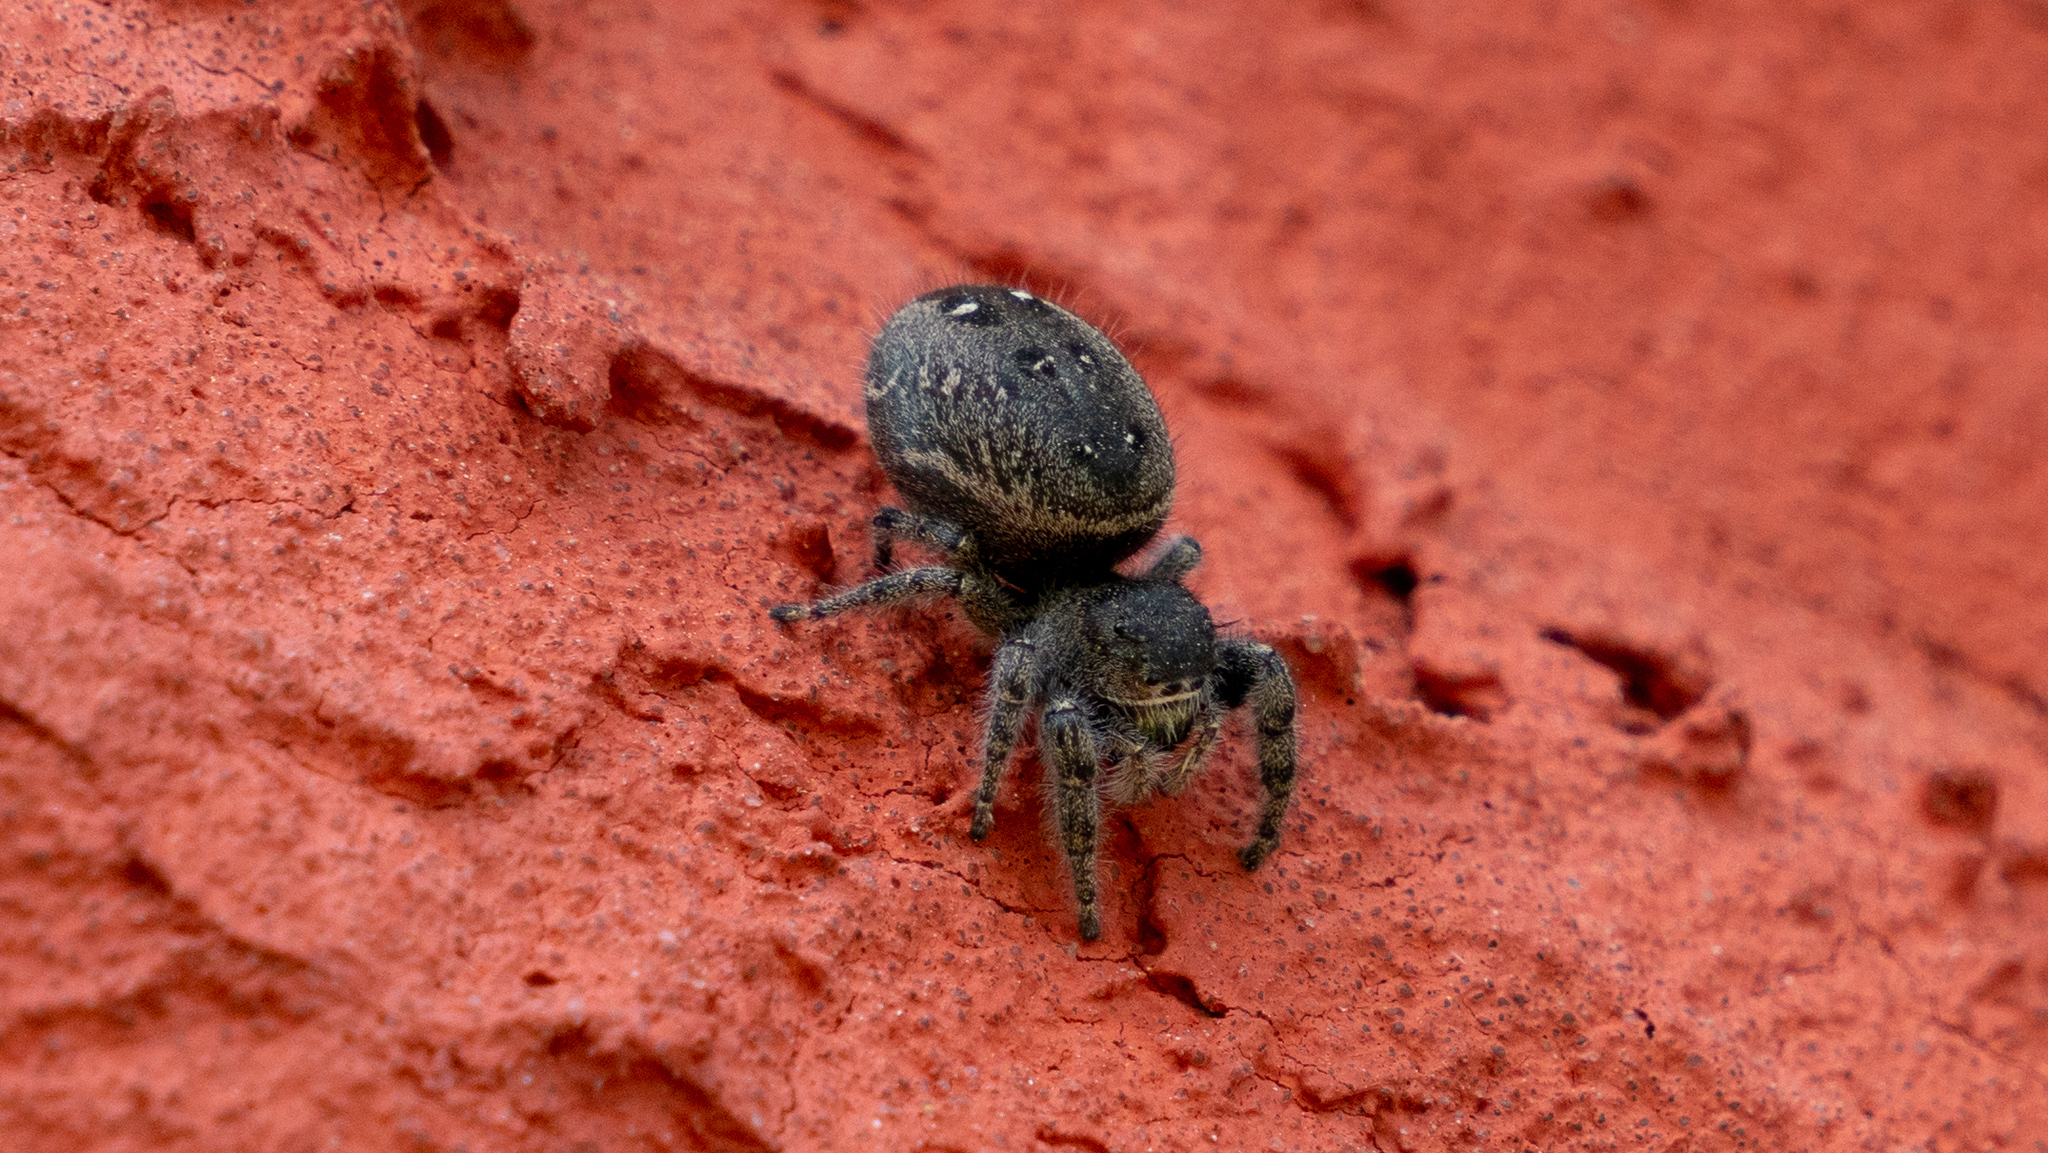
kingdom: Animalia
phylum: Arthropoda
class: Arachnida
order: Araneae
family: Salticidae
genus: Phidippus
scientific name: Phidippus purpuratus
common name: Marbled purple jumping spider
